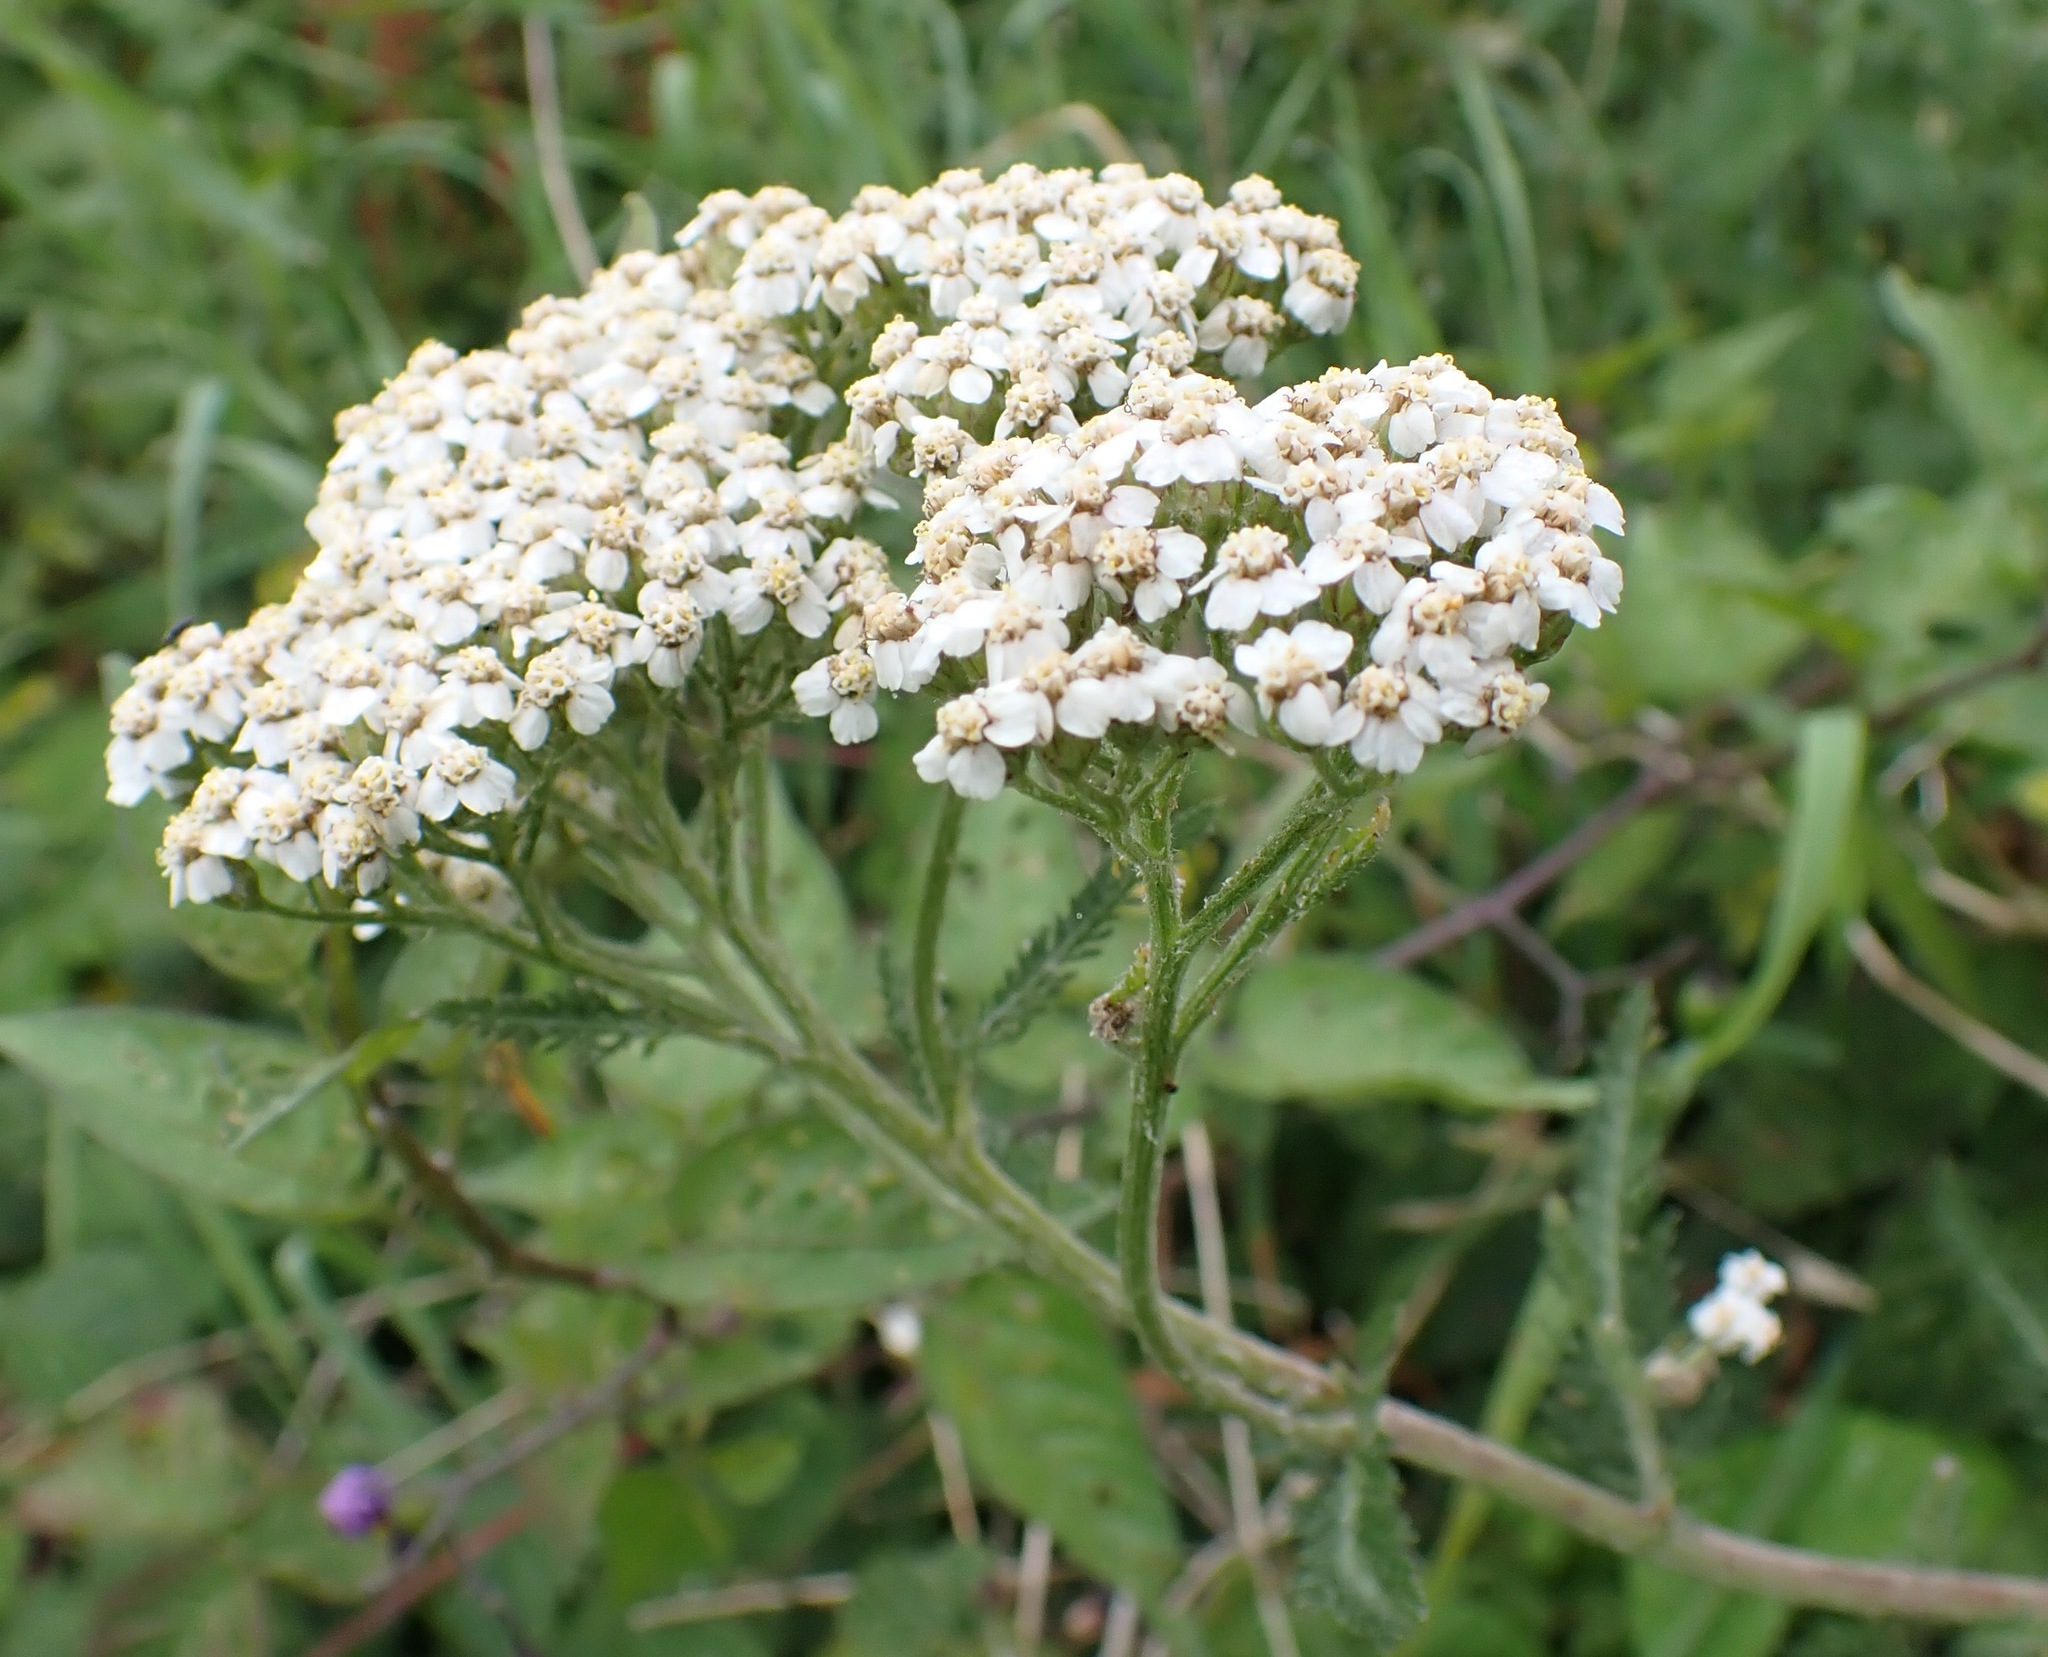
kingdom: Plantae
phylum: Tracheophyta
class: Magnoliopsida
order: Asterales
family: Asteraceae
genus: Achillea
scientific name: Achillea millefolium
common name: Yarrow
